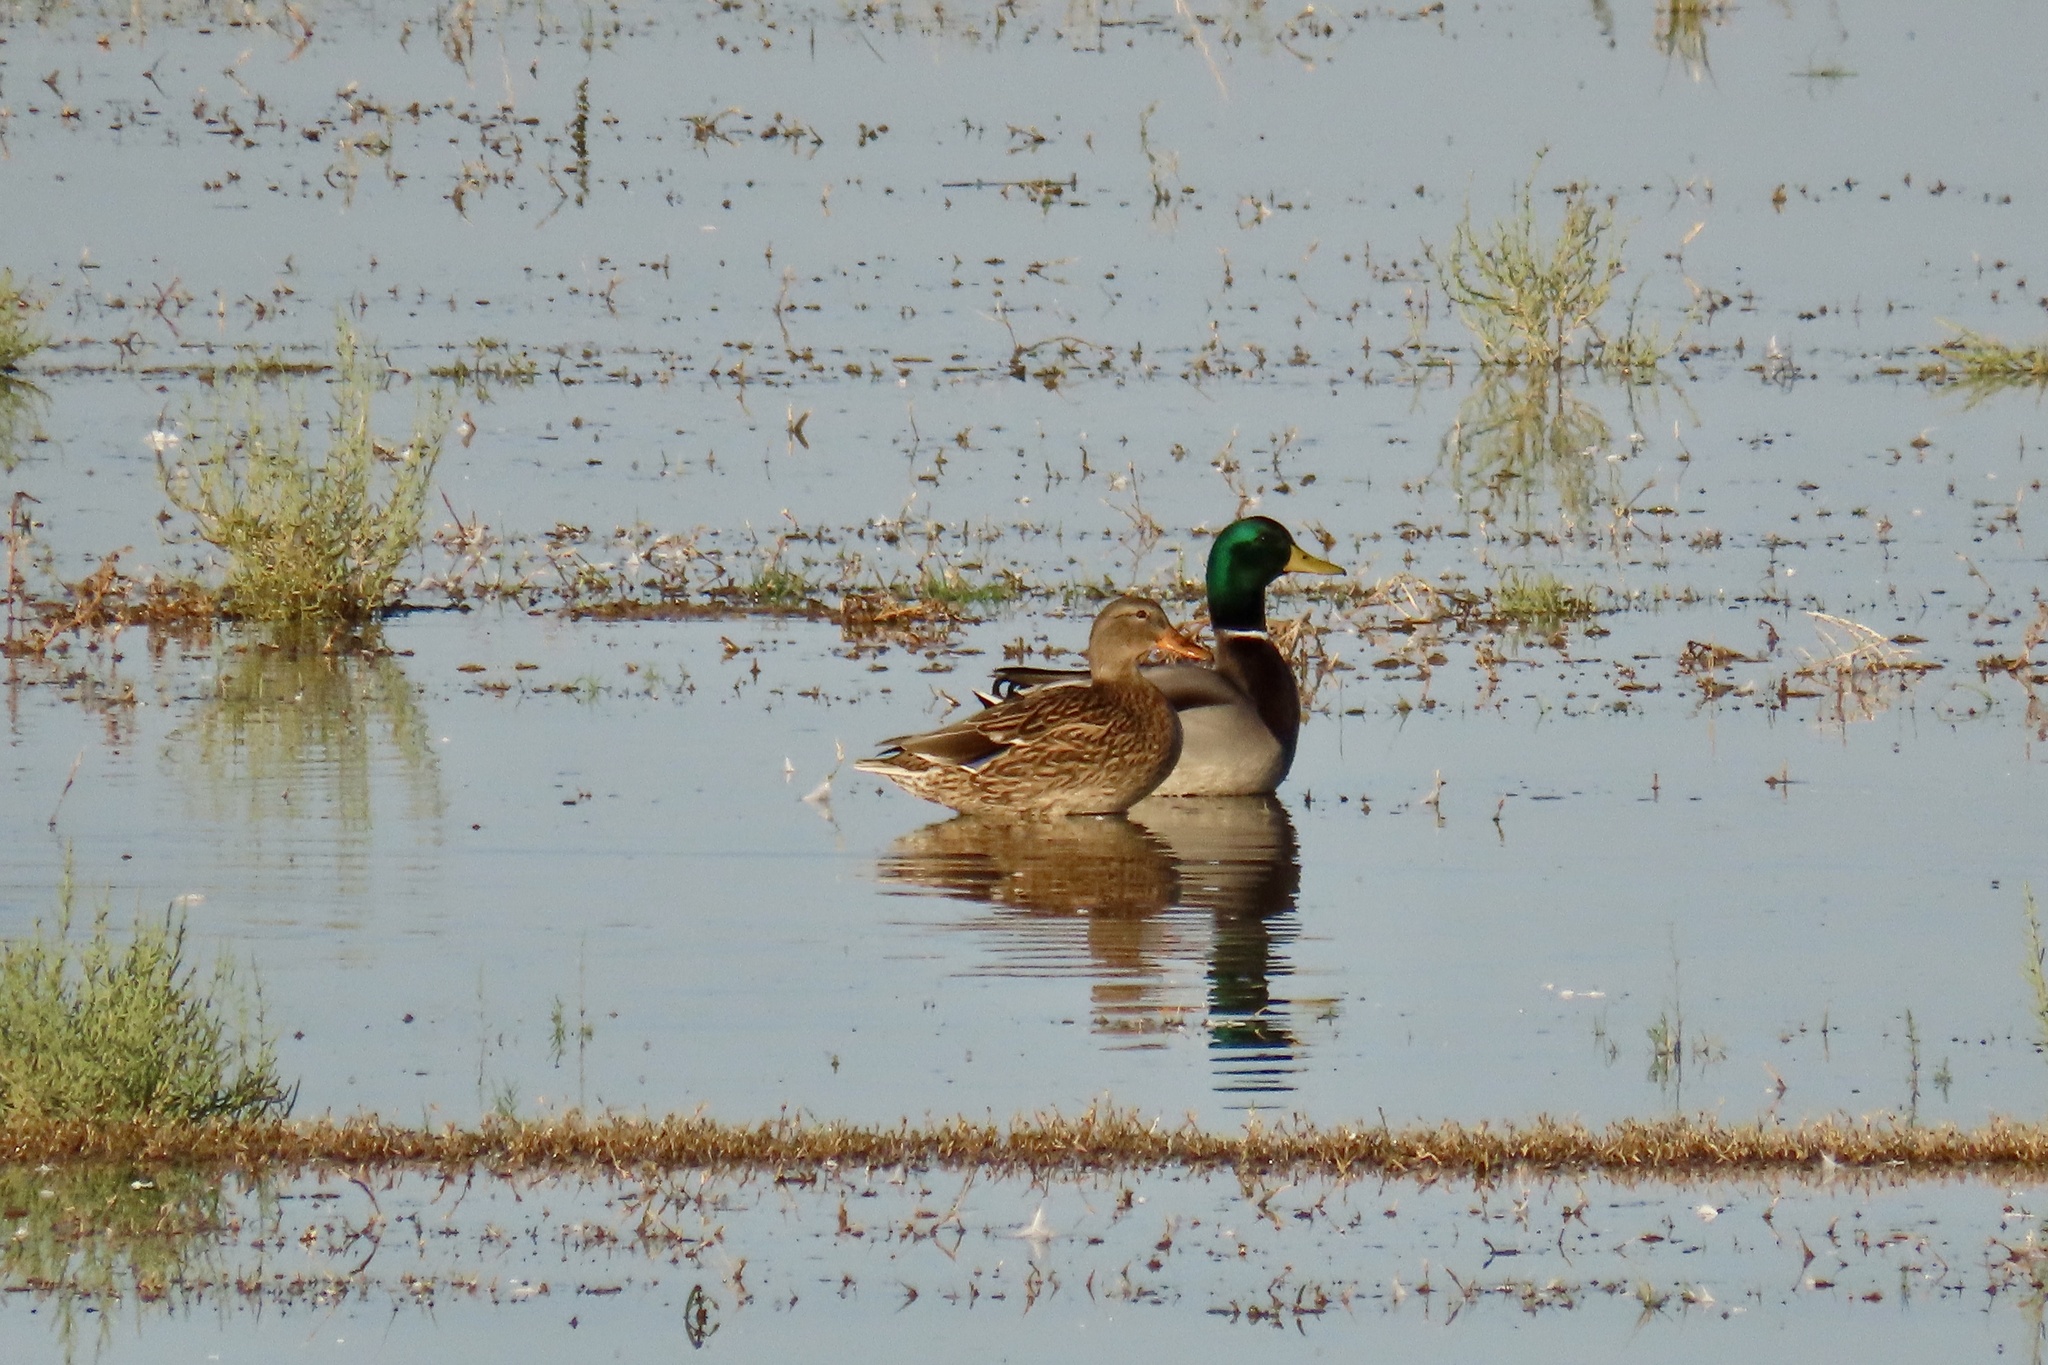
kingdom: Animalia
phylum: Chordata
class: Aves
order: Anseriformes
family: Anatidae
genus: Anas
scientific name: Anas platyrhynchos
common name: Mallard
